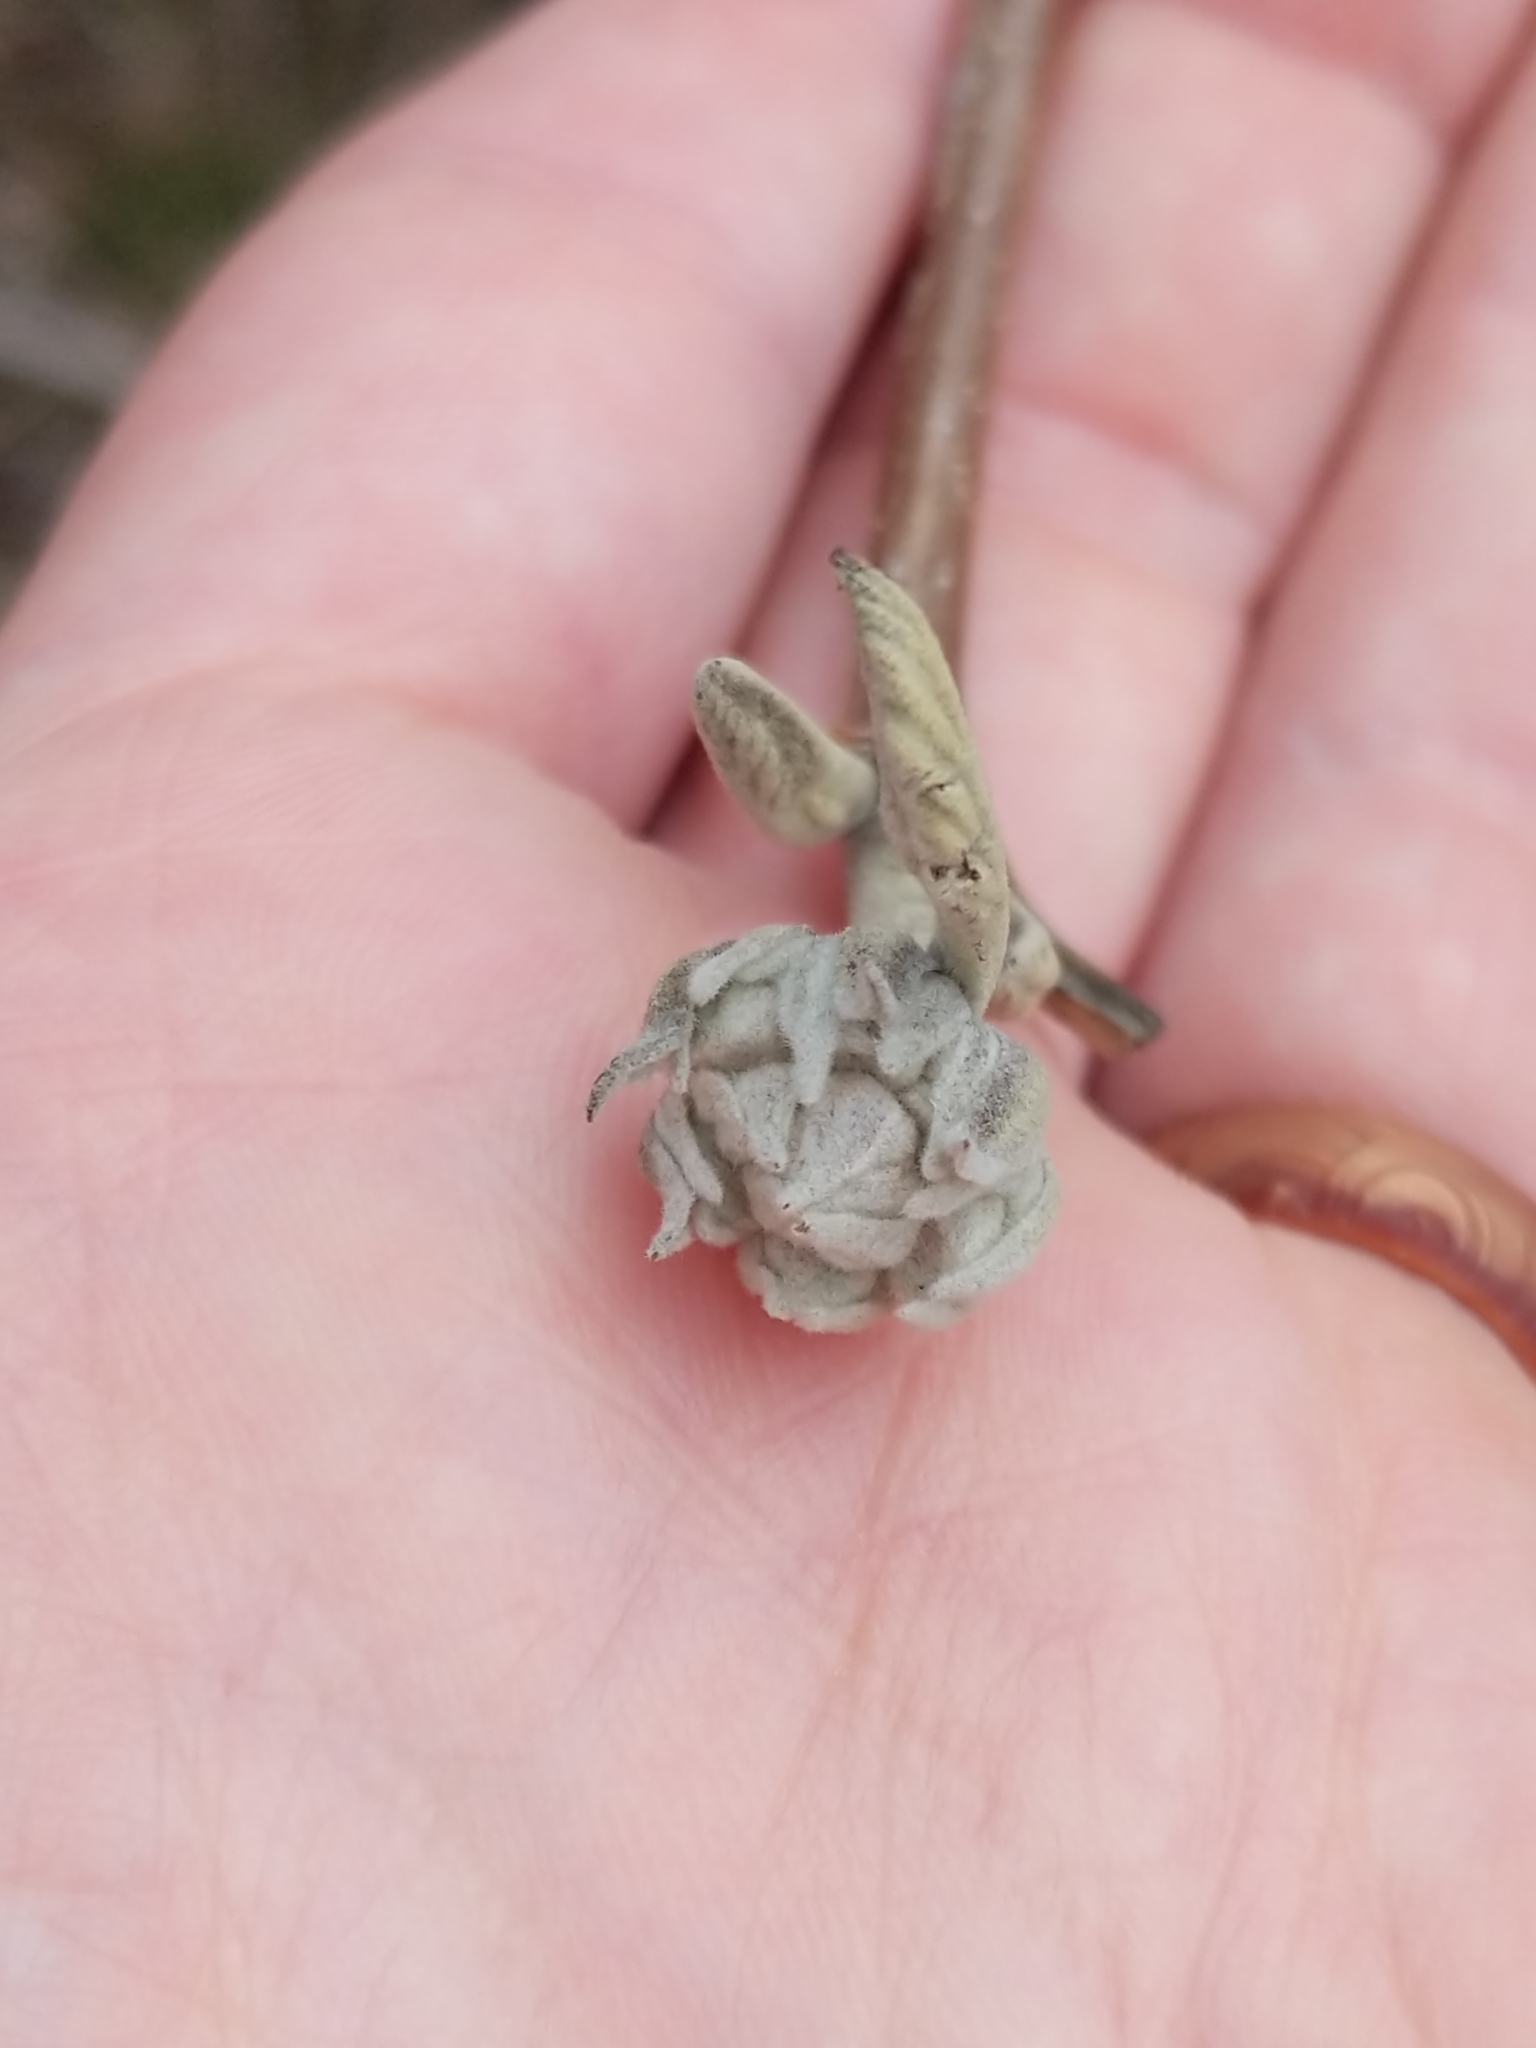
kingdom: Plantae
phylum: Tracheophyta
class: Magnoliopsida
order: Dipsacales
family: Viburnaceae
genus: Viburnum
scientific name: Viburnum lantana
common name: Wayfaring tree
